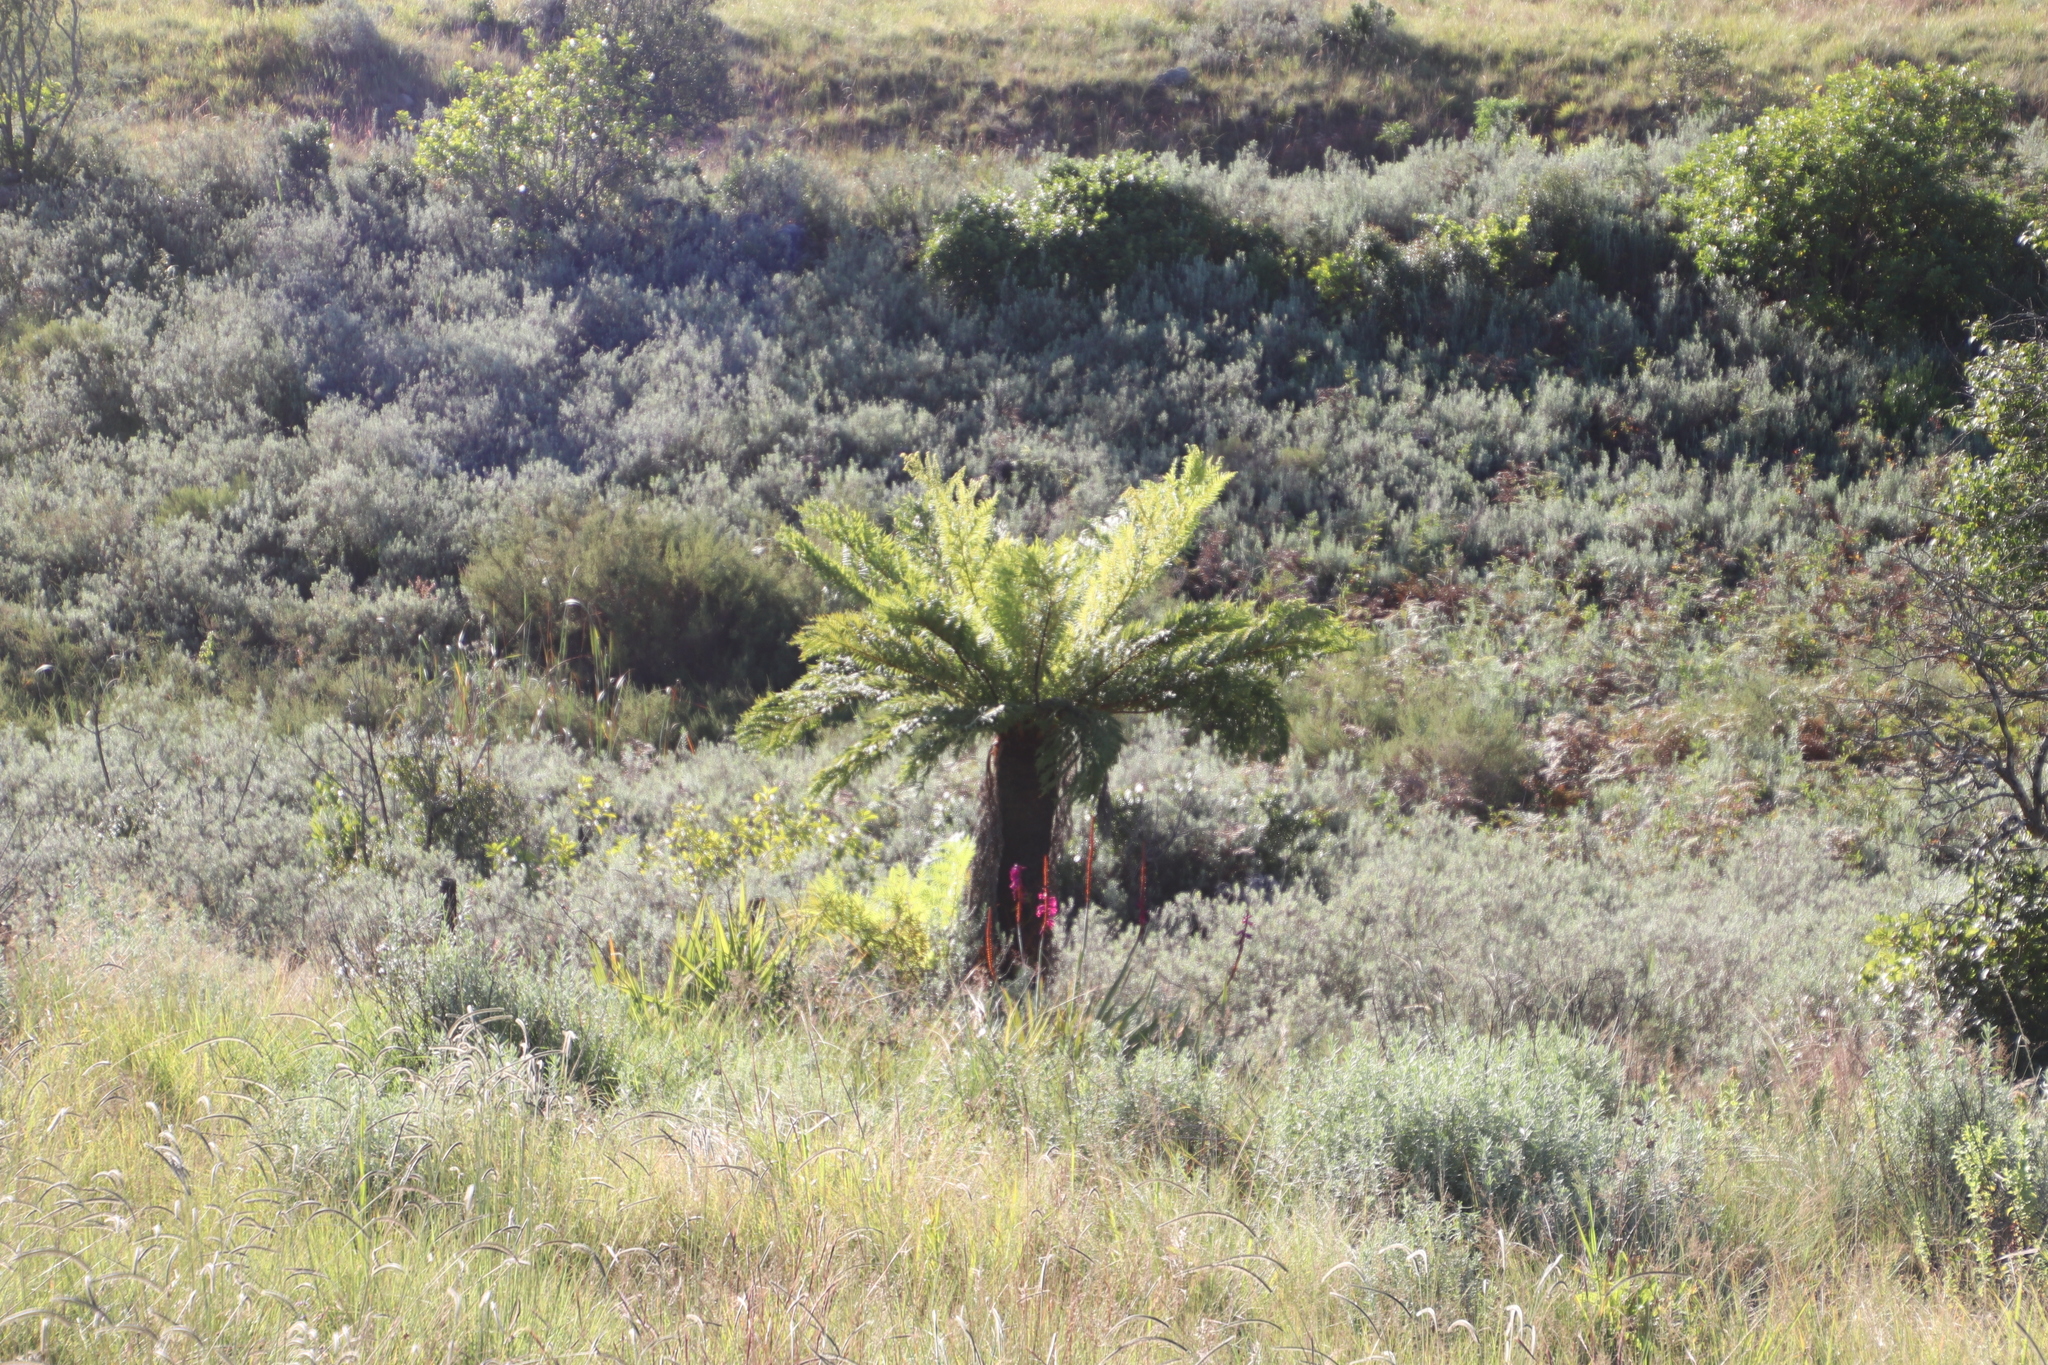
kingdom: Plantae
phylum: Tracheophyta
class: Polypodiopsida
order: Cyatheales
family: Cyatheaceae
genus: Alsophila
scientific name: Alsophila dregei
